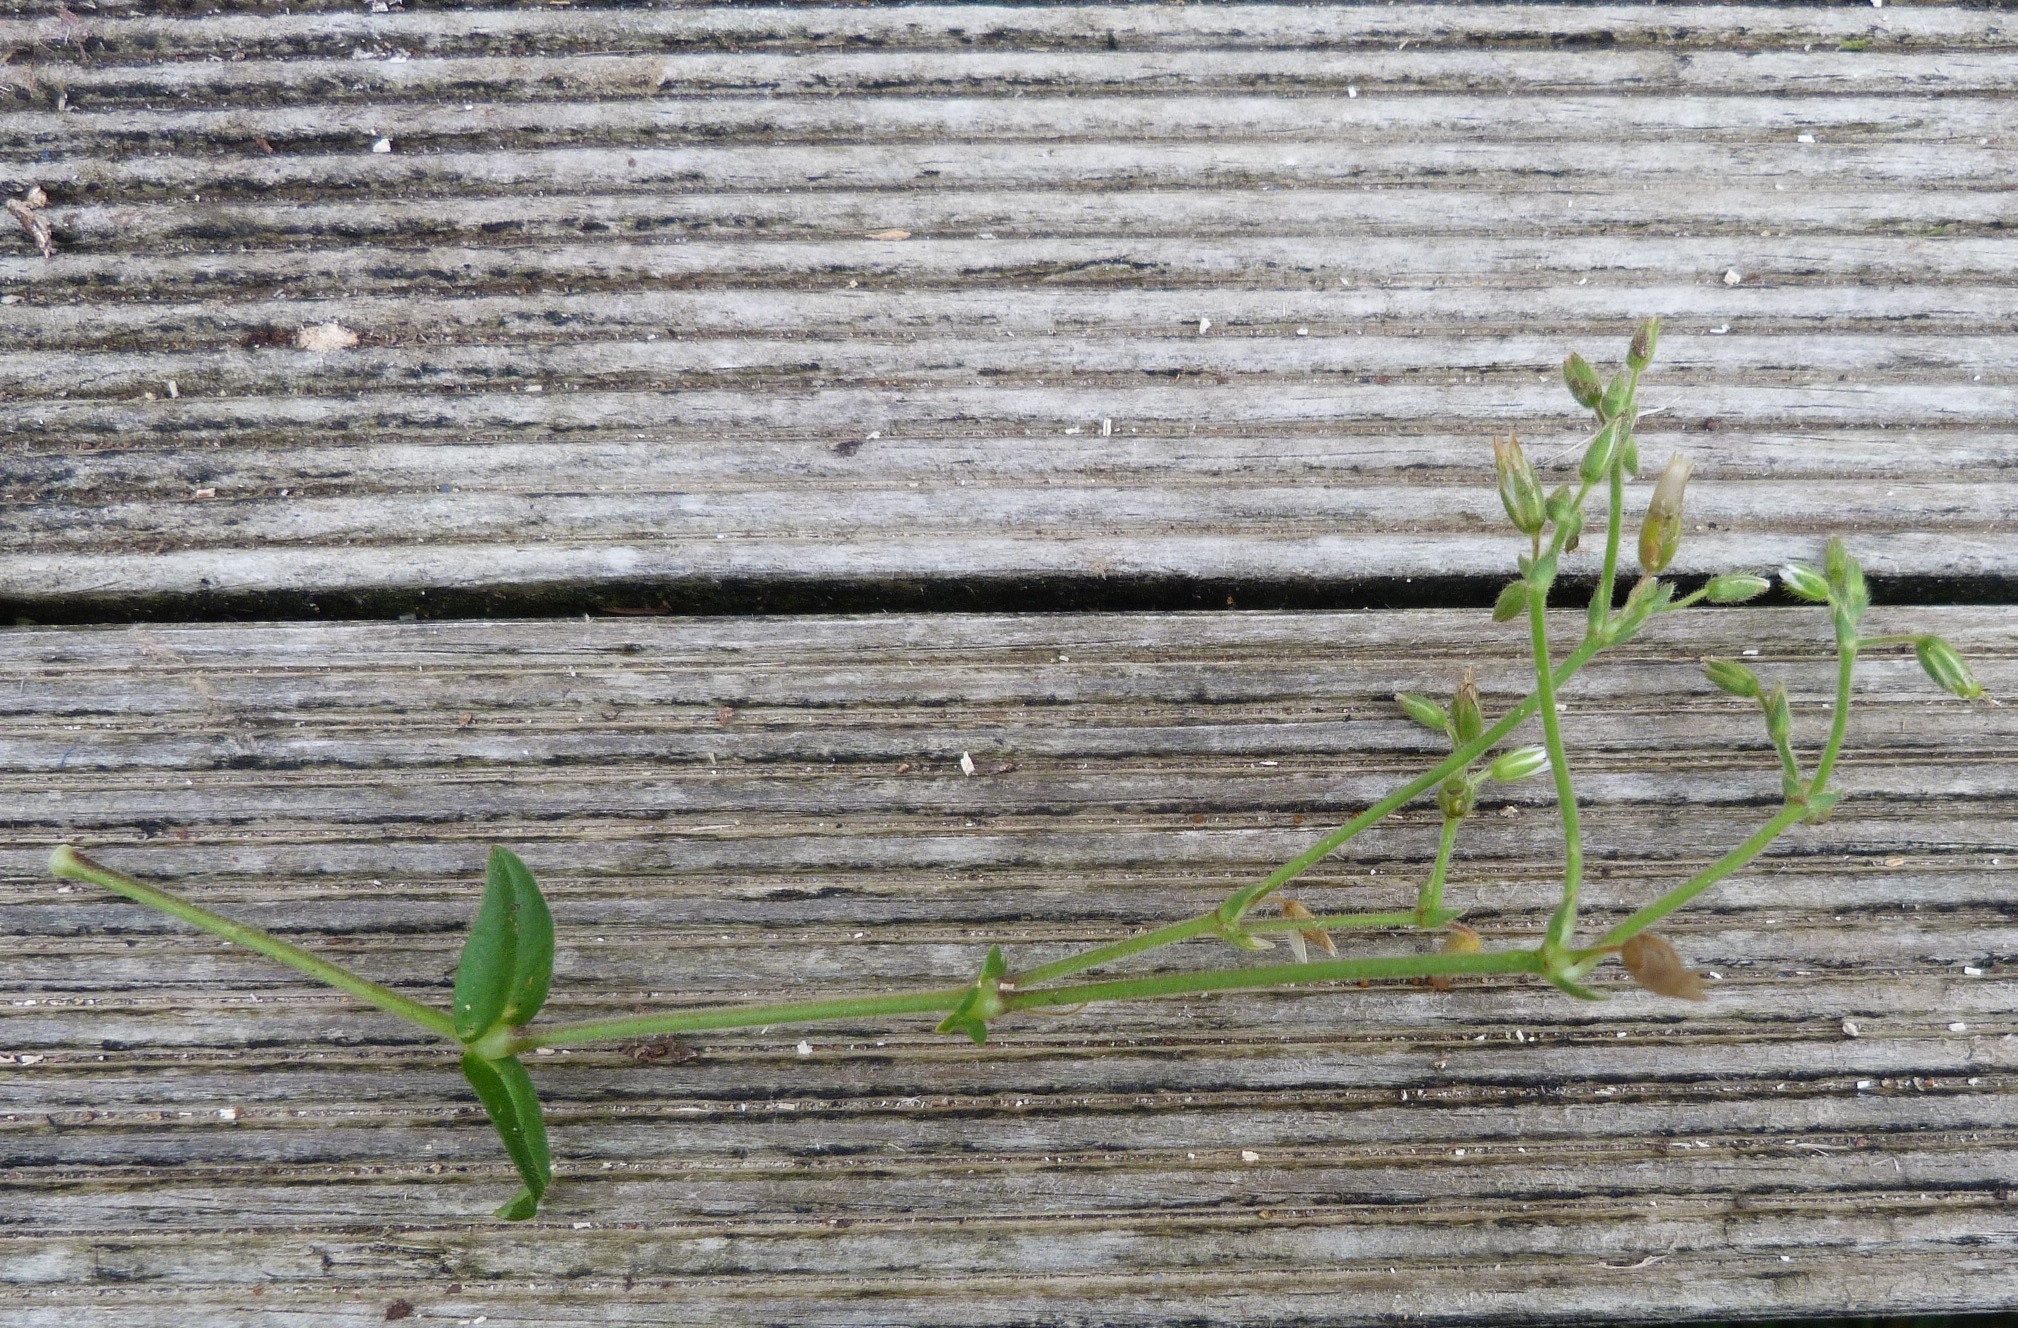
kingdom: Plantae
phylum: Tracheophyta
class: Magnoliopsida
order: Caryophyllales
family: Caryophyllaceae
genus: Cerastium
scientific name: Cerastium fontanum
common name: Common mouse-ear
